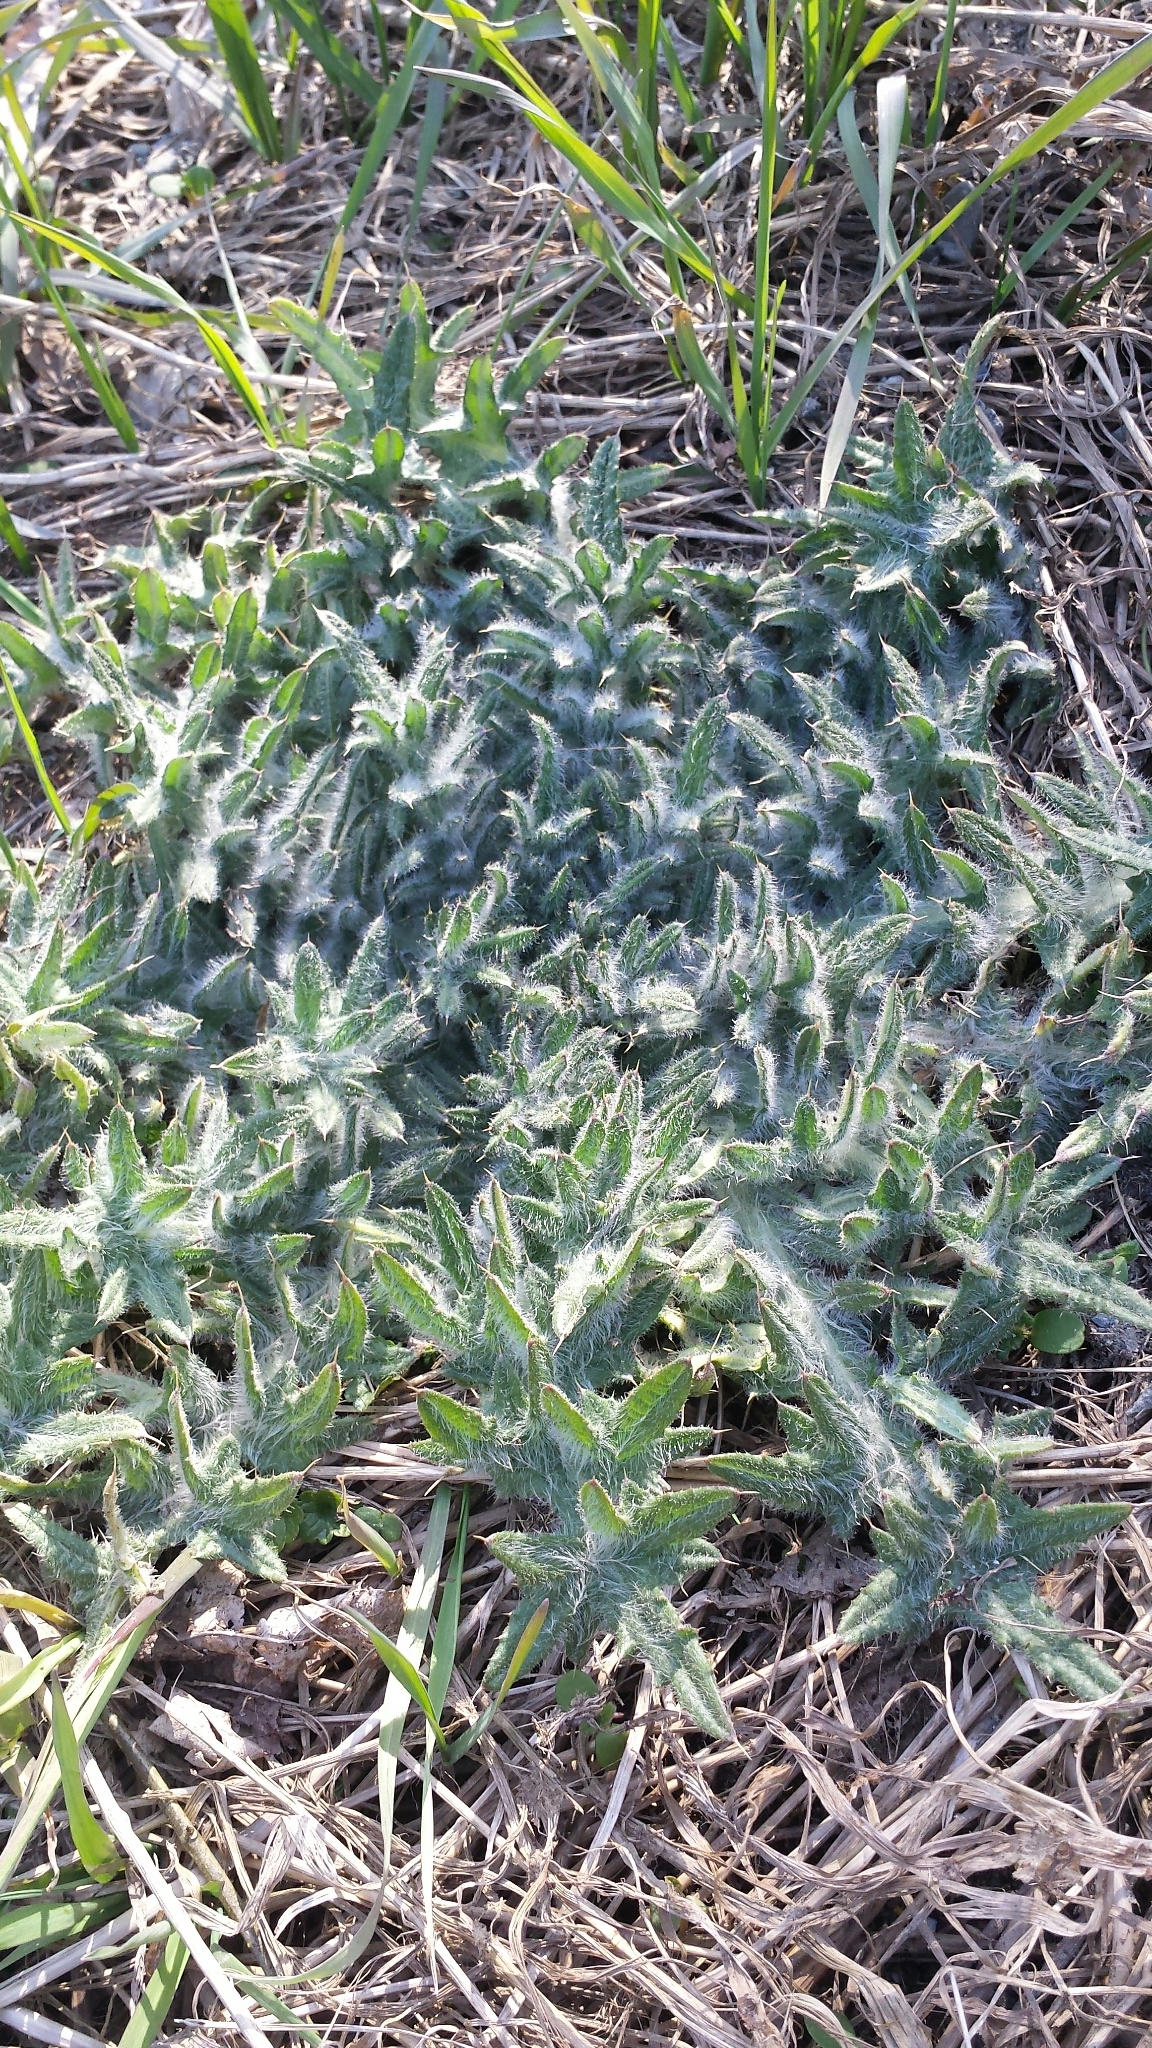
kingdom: Plantae
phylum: Tracheophyta
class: Magnoliopsida
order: Asterales
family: Asteraceae
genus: Cirsium
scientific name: Cirsium vulgare
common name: Bull thistle
